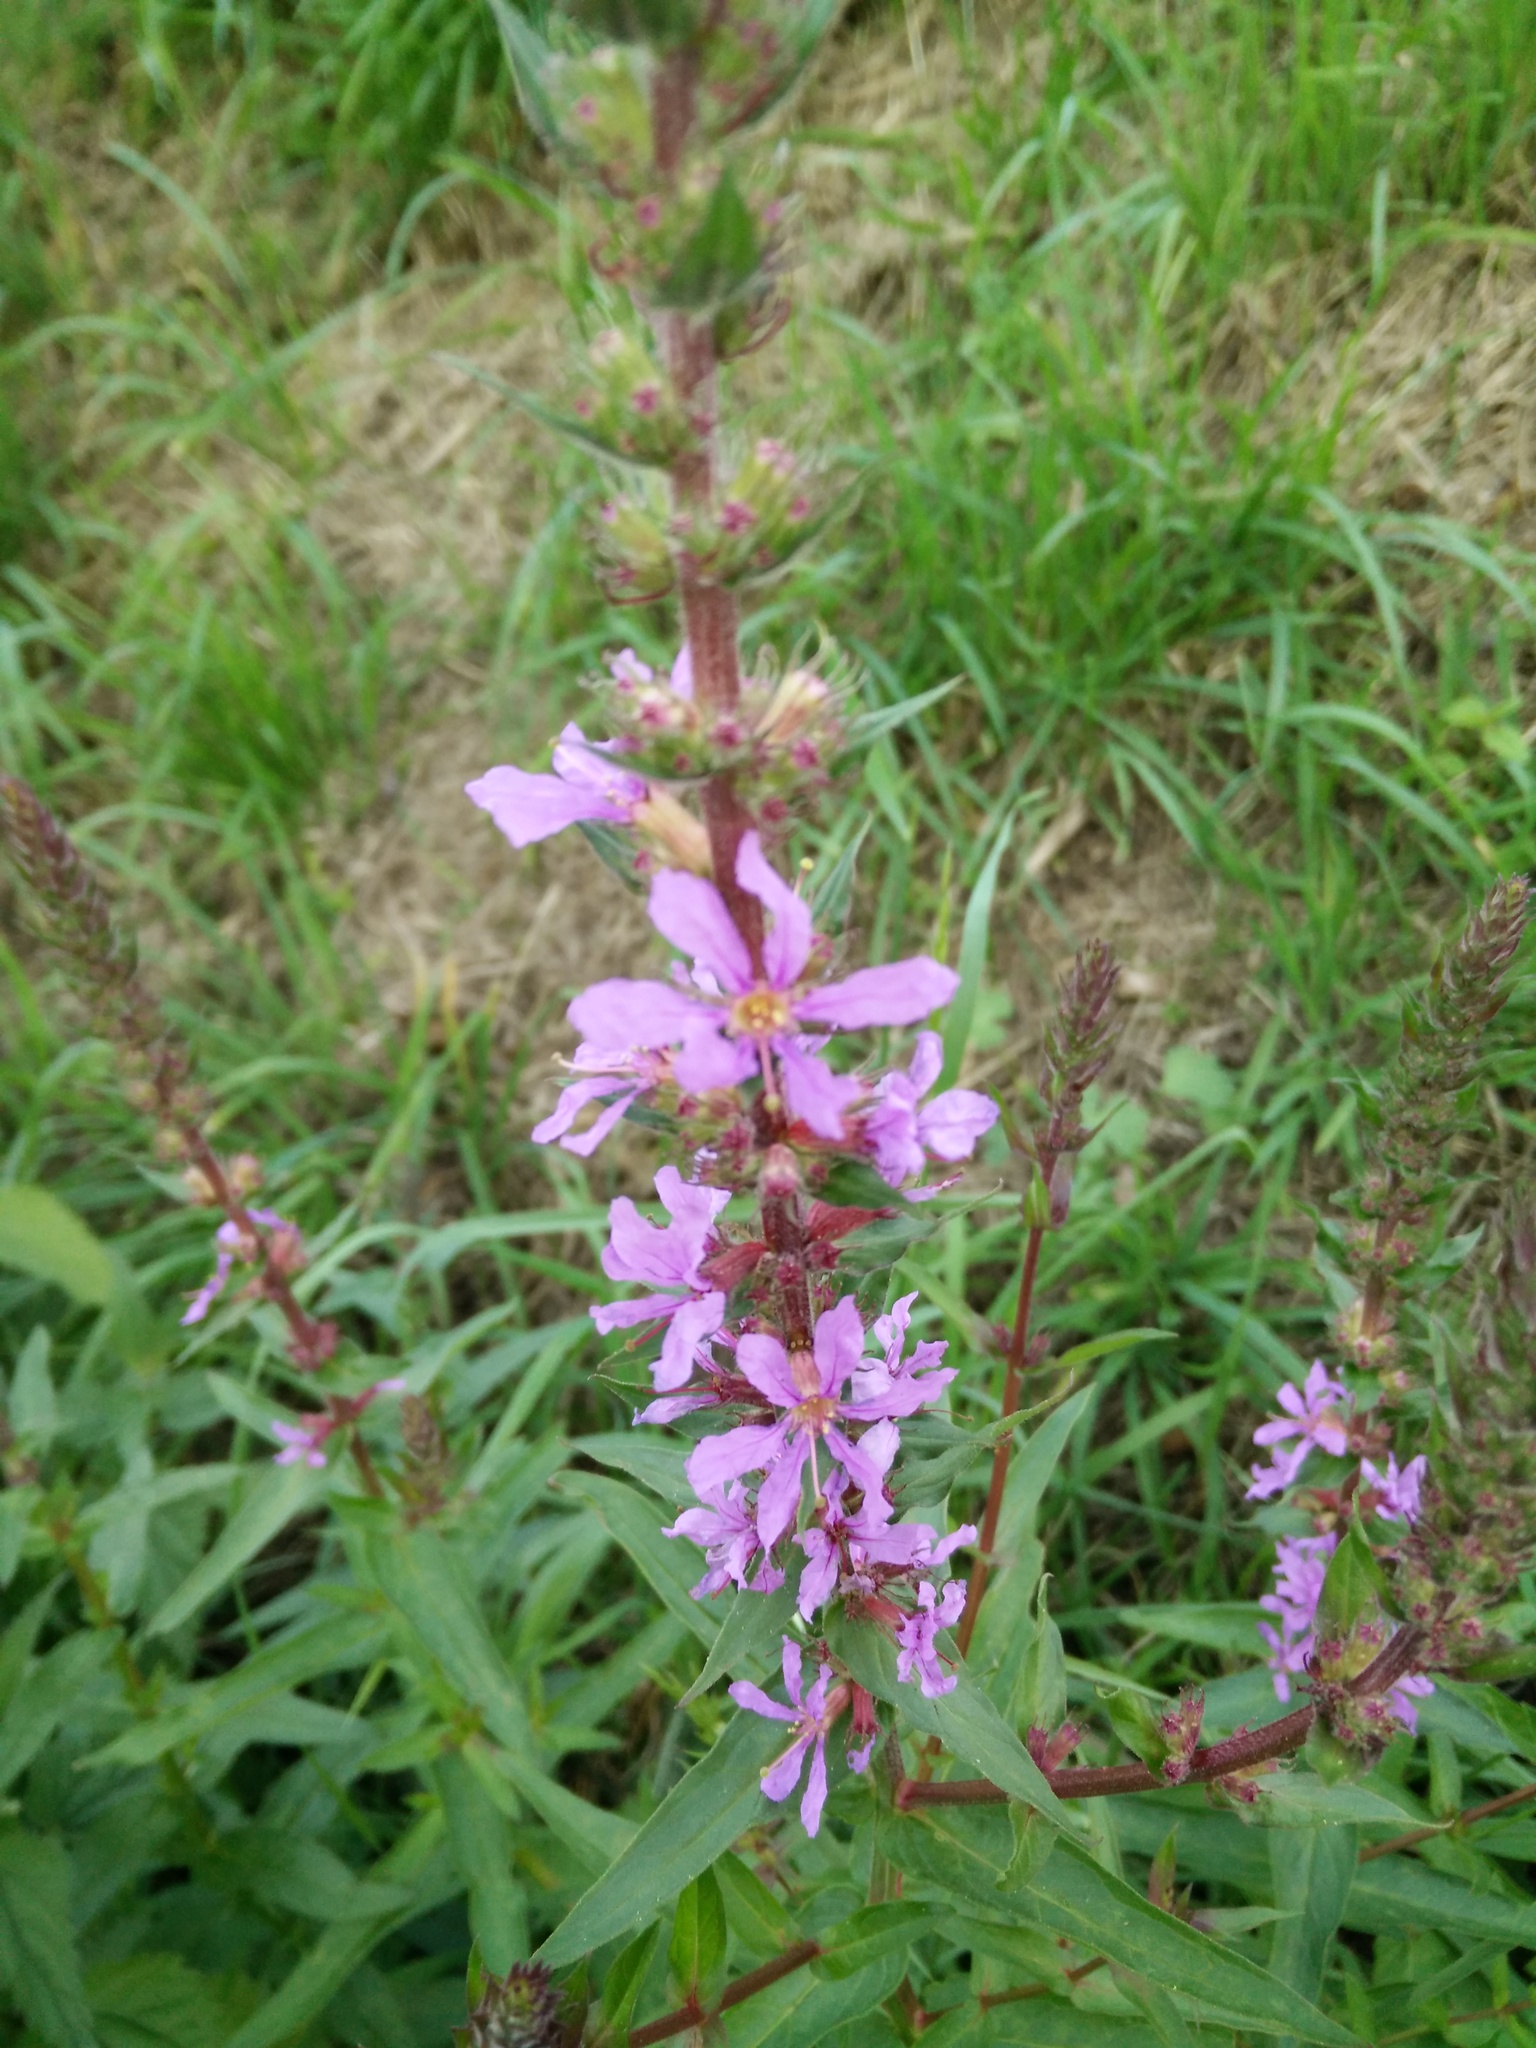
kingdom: Plantae
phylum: Tracheophyta
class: Magnoliopsida
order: Myrtales
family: Lythraceae
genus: Lythrum
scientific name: Lythrum salicaria
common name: Purple loosestrife
